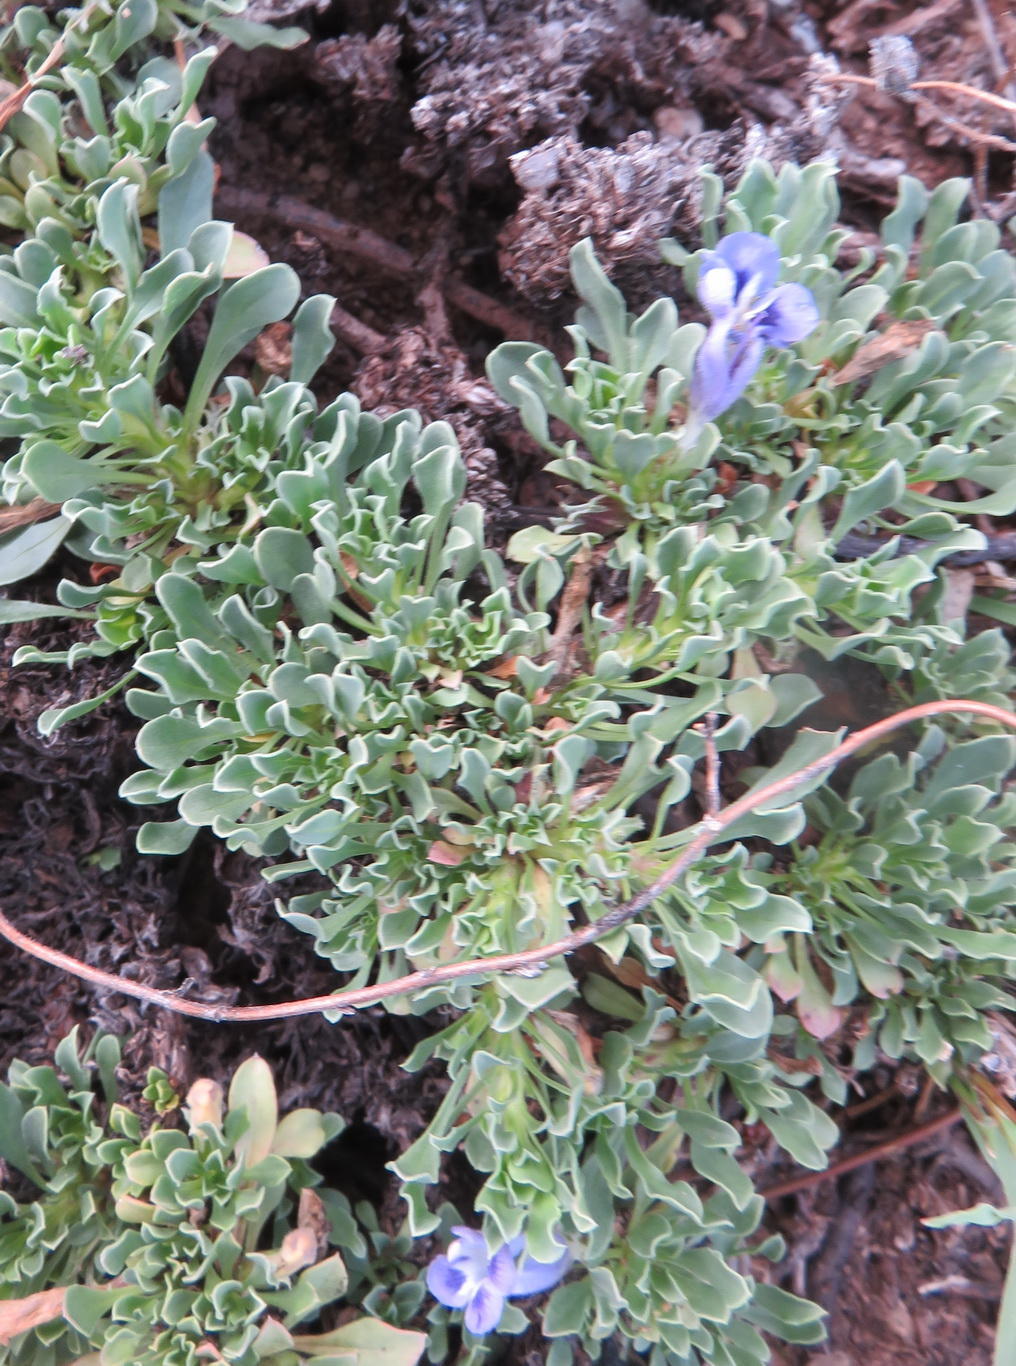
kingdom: Plantae
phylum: Tracheophyta
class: Magnoliopsida
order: Lamiales
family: Scrophulariaceae
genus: Aptosimum
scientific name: Aptosimum procumbens
